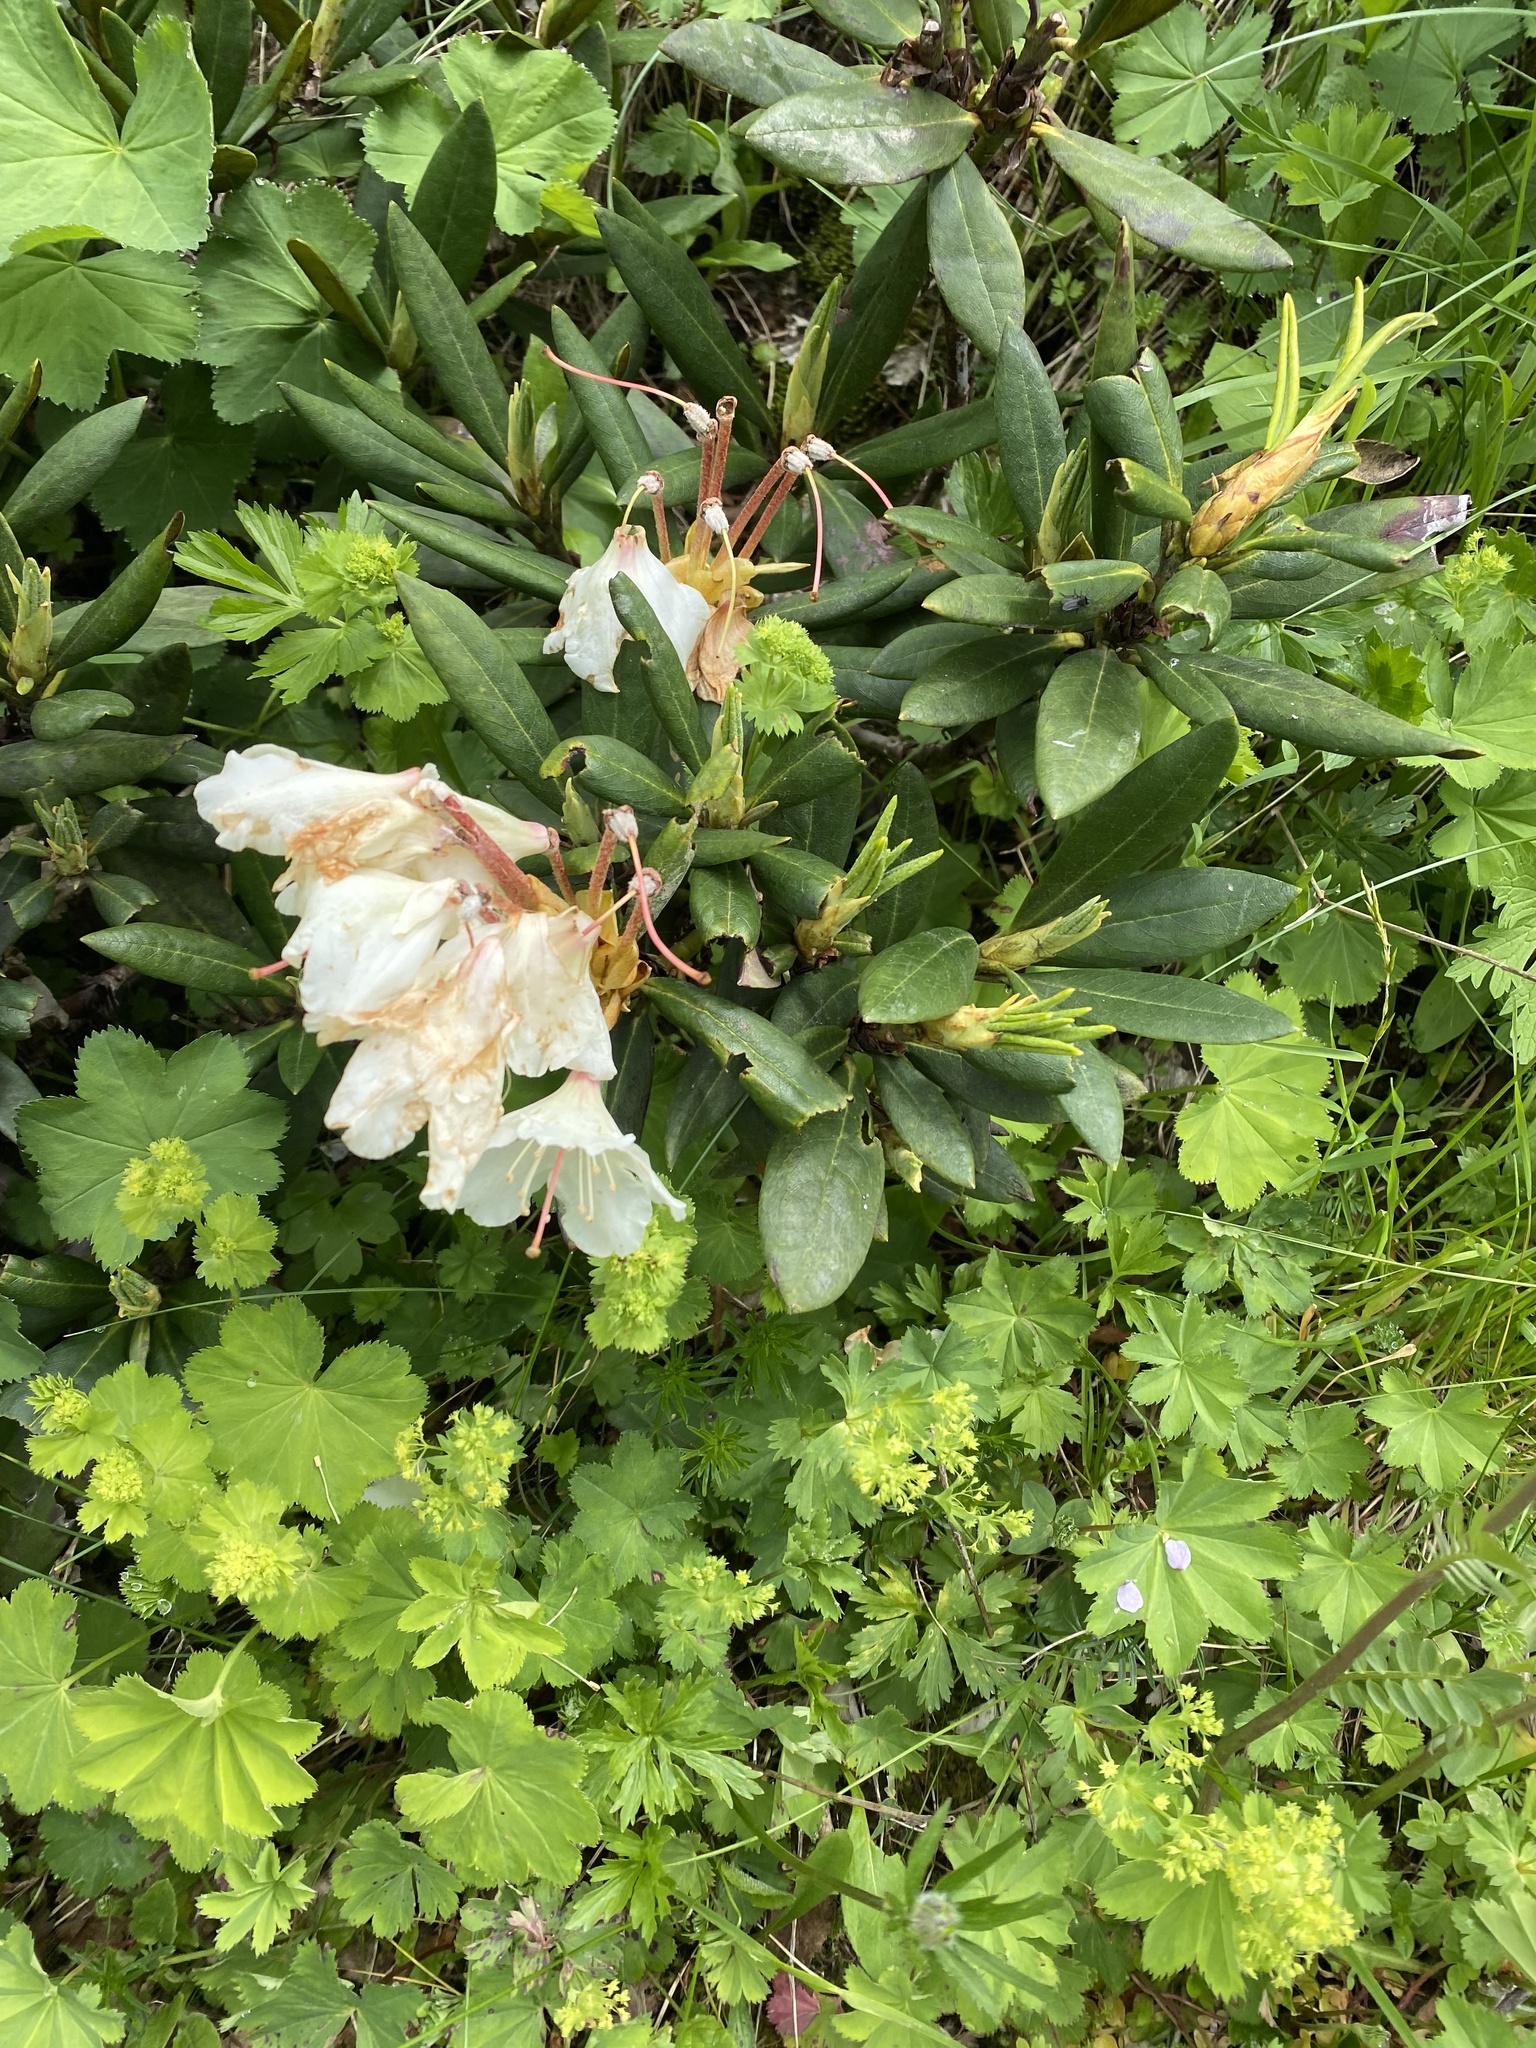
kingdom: Plantae
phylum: Tracheophyta
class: Magnoliopsida
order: Ericales
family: Ericaceae
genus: Rhododendron
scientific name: Rhododendron caucasicum
